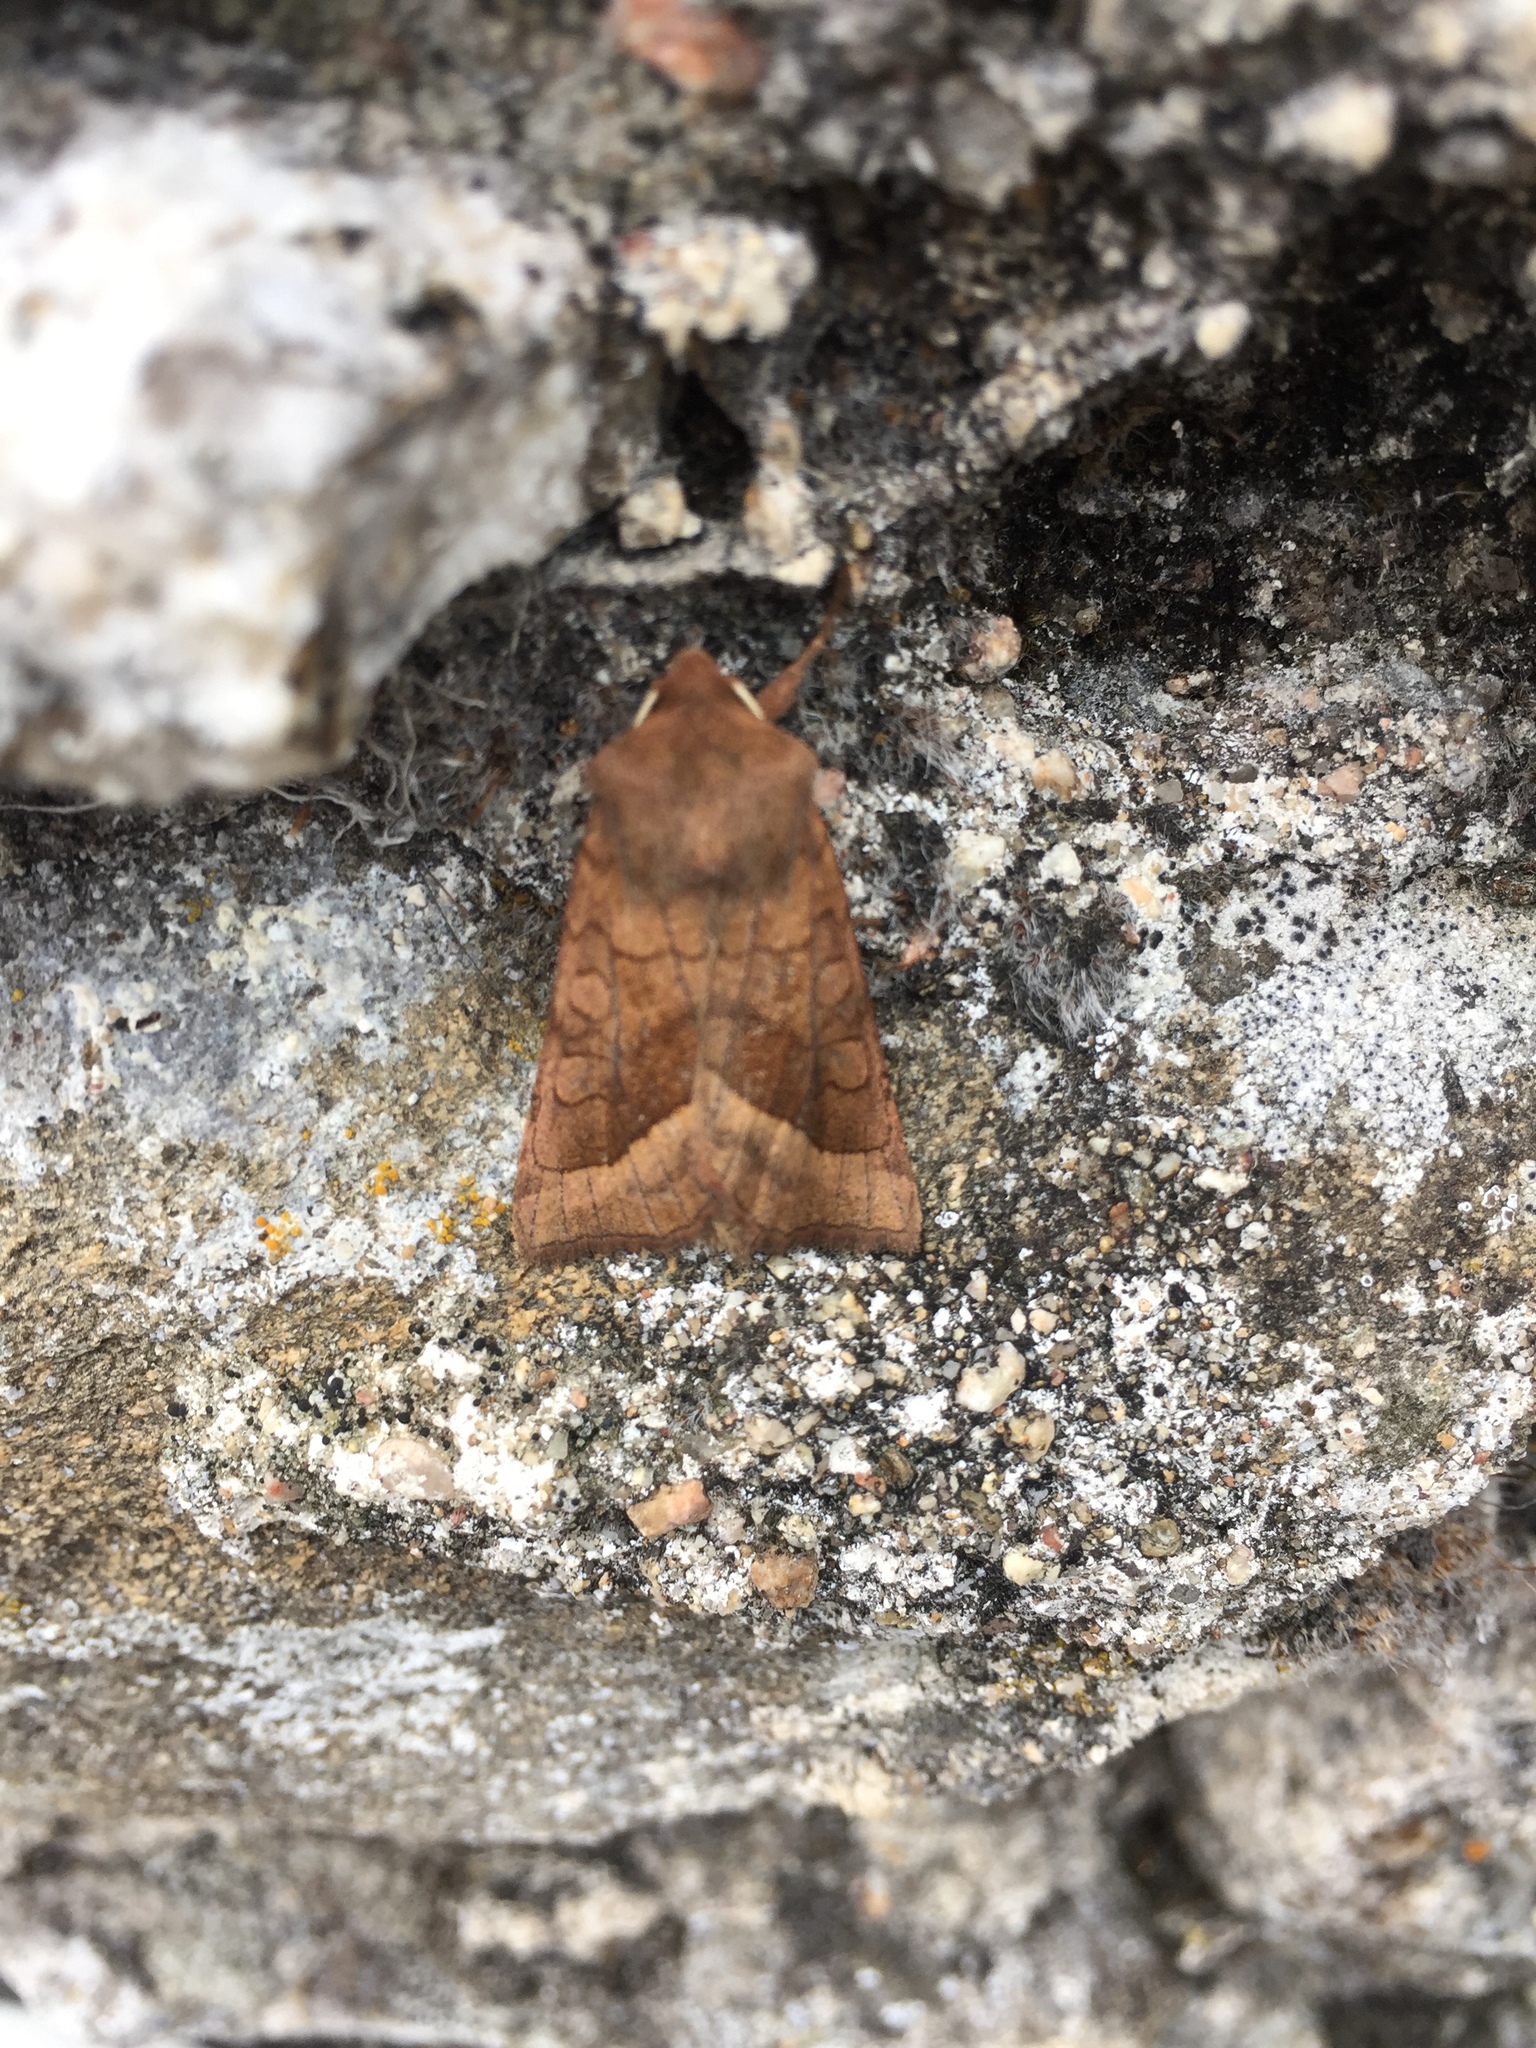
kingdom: Animalia
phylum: Arthropoda
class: Insecta
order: Lepidoptera
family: Noctuidae
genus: Hydraecia
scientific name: Hydraecia micacea
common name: Rosy rustic
